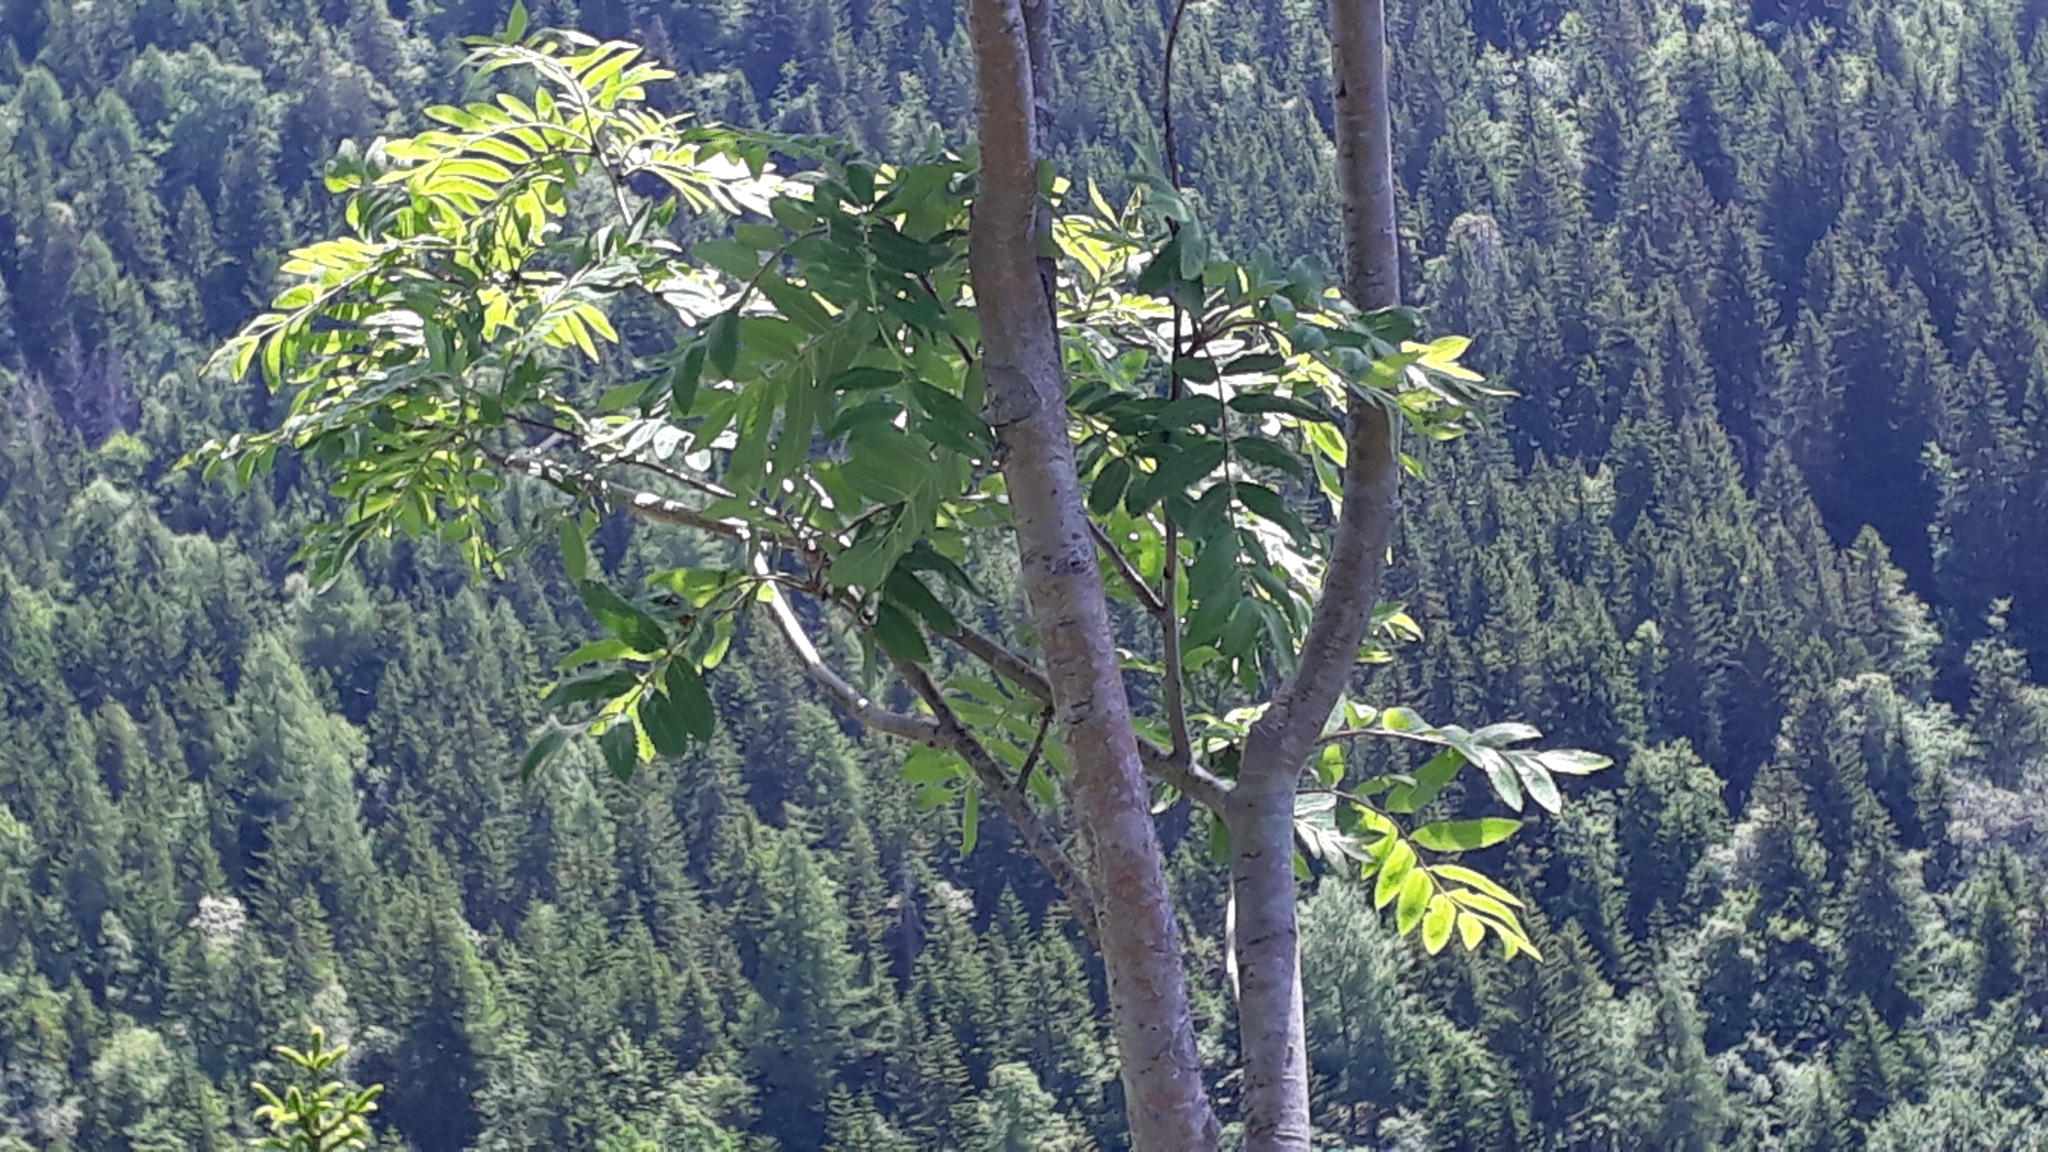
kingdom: Plantae
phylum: Tracheophyta
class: Magnoliopsida
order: Rosales
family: Rosaceae
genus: Sorbus
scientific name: Sorbus aucuparia
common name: Rowan
